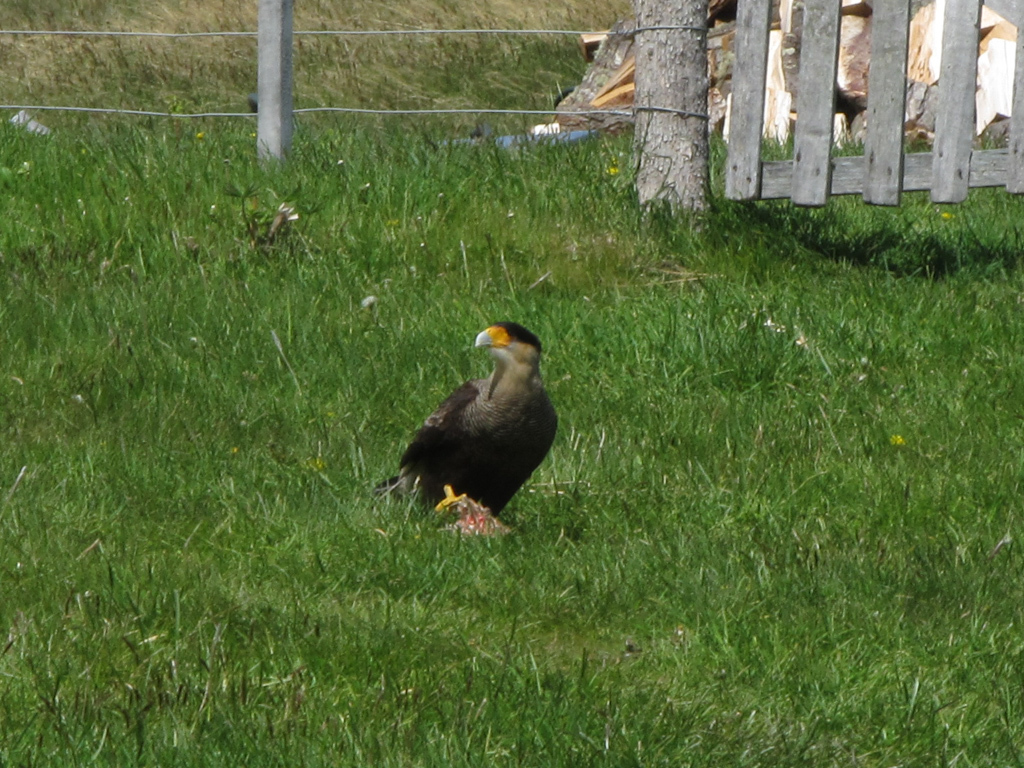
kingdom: Animalia
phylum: Chordata
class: Aves
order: Falconiformes
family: Falconidae
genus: Caracara
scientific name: Caracara plancus
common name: Southern caracara
